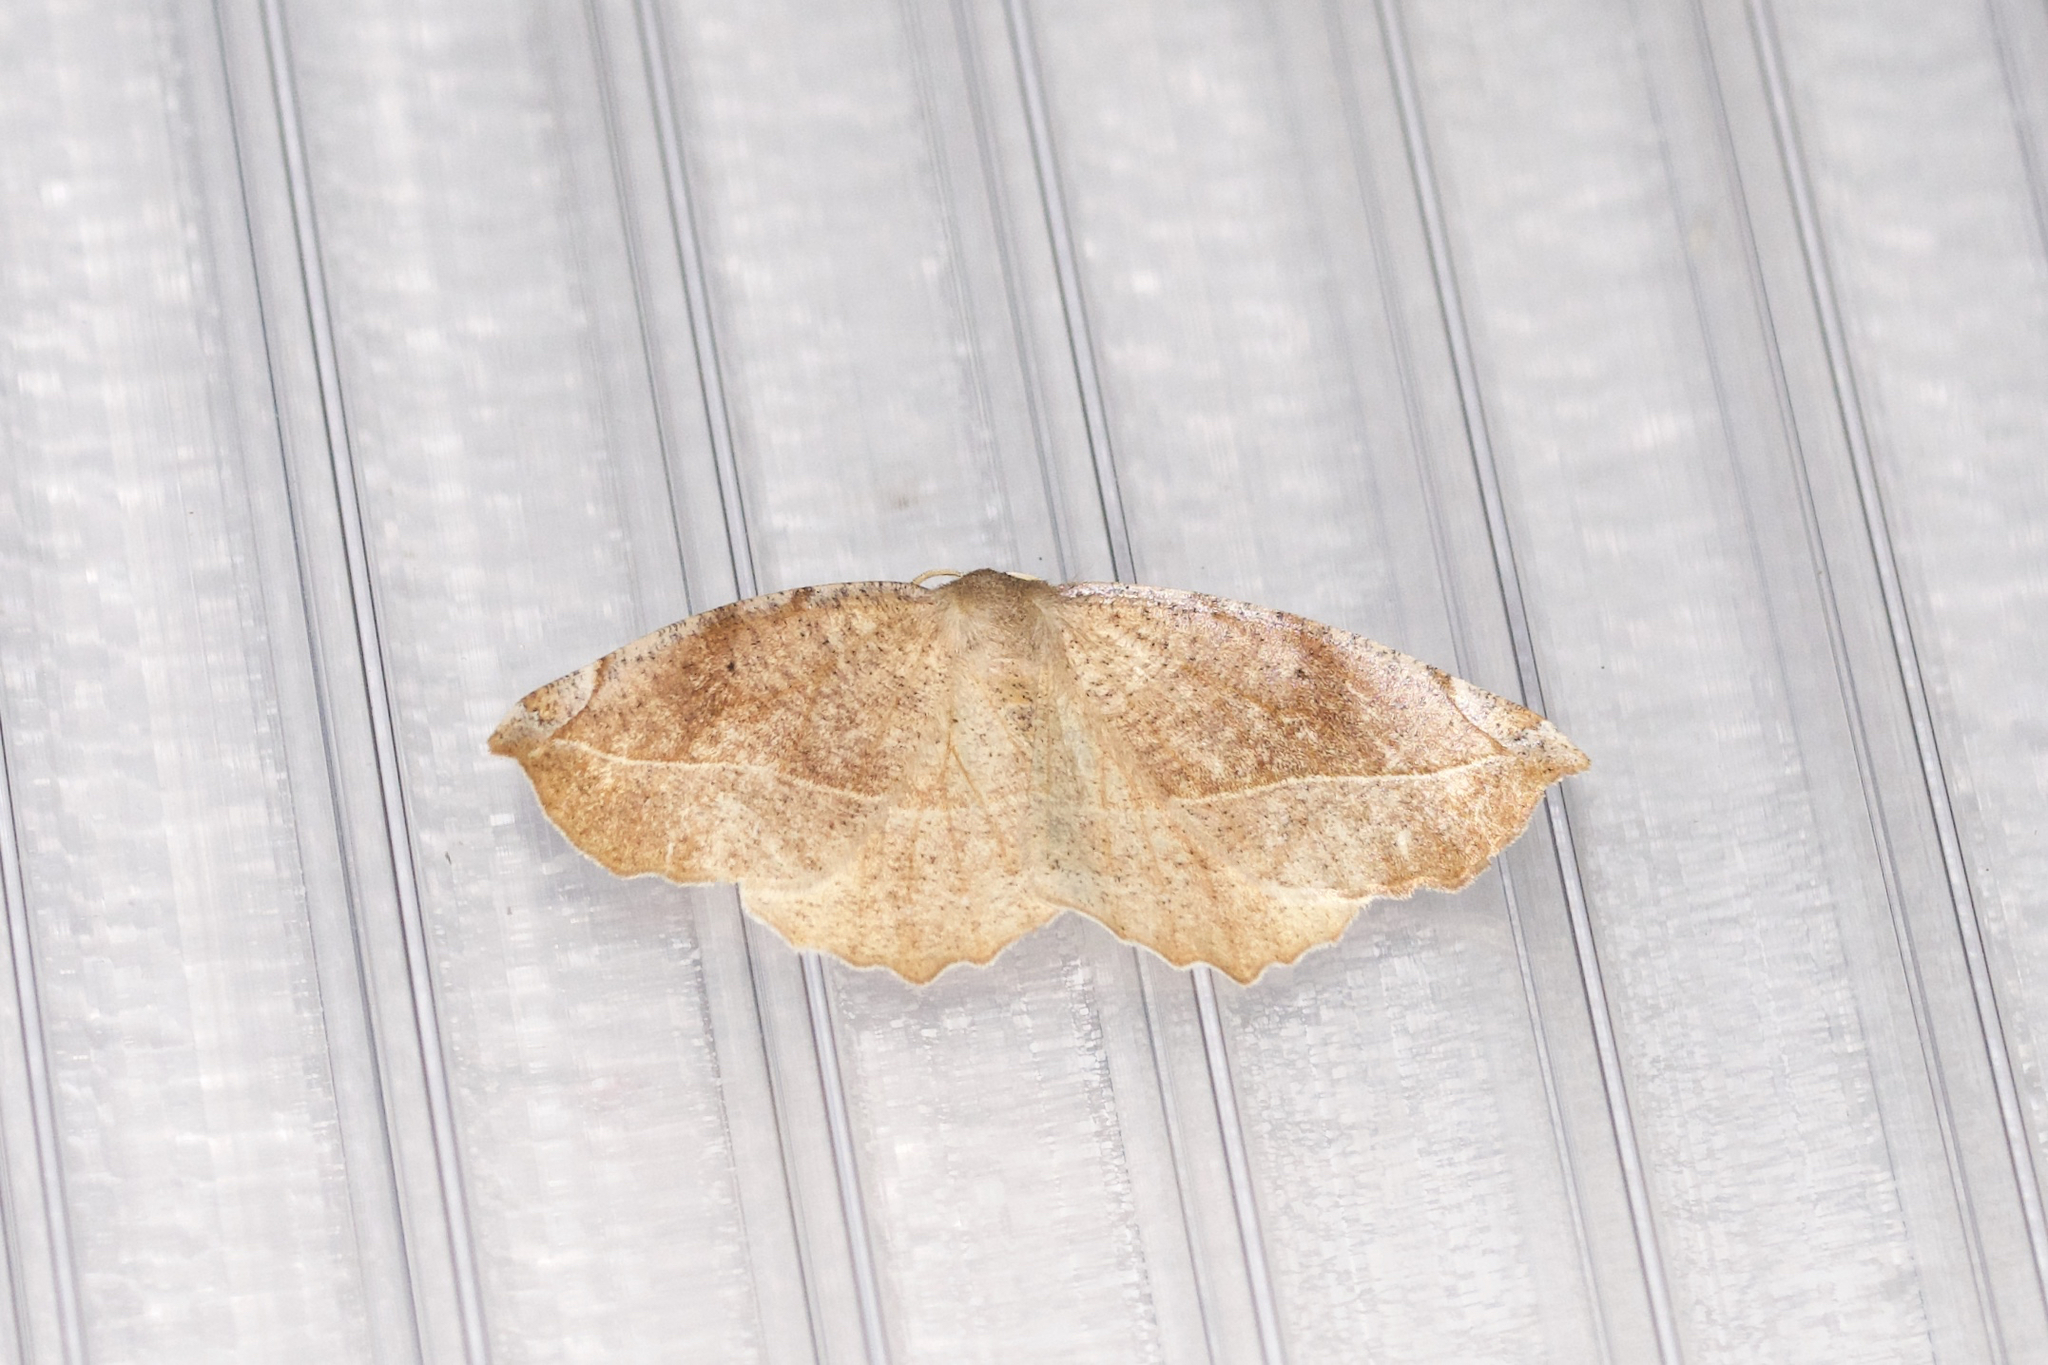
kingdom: Animalia
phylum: Arthropoda
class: Insecta
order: Lepidoptera
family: Geometridae
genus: Eutrapela
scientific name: Eutrapela clemataria
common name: Curved-toothed geometer
